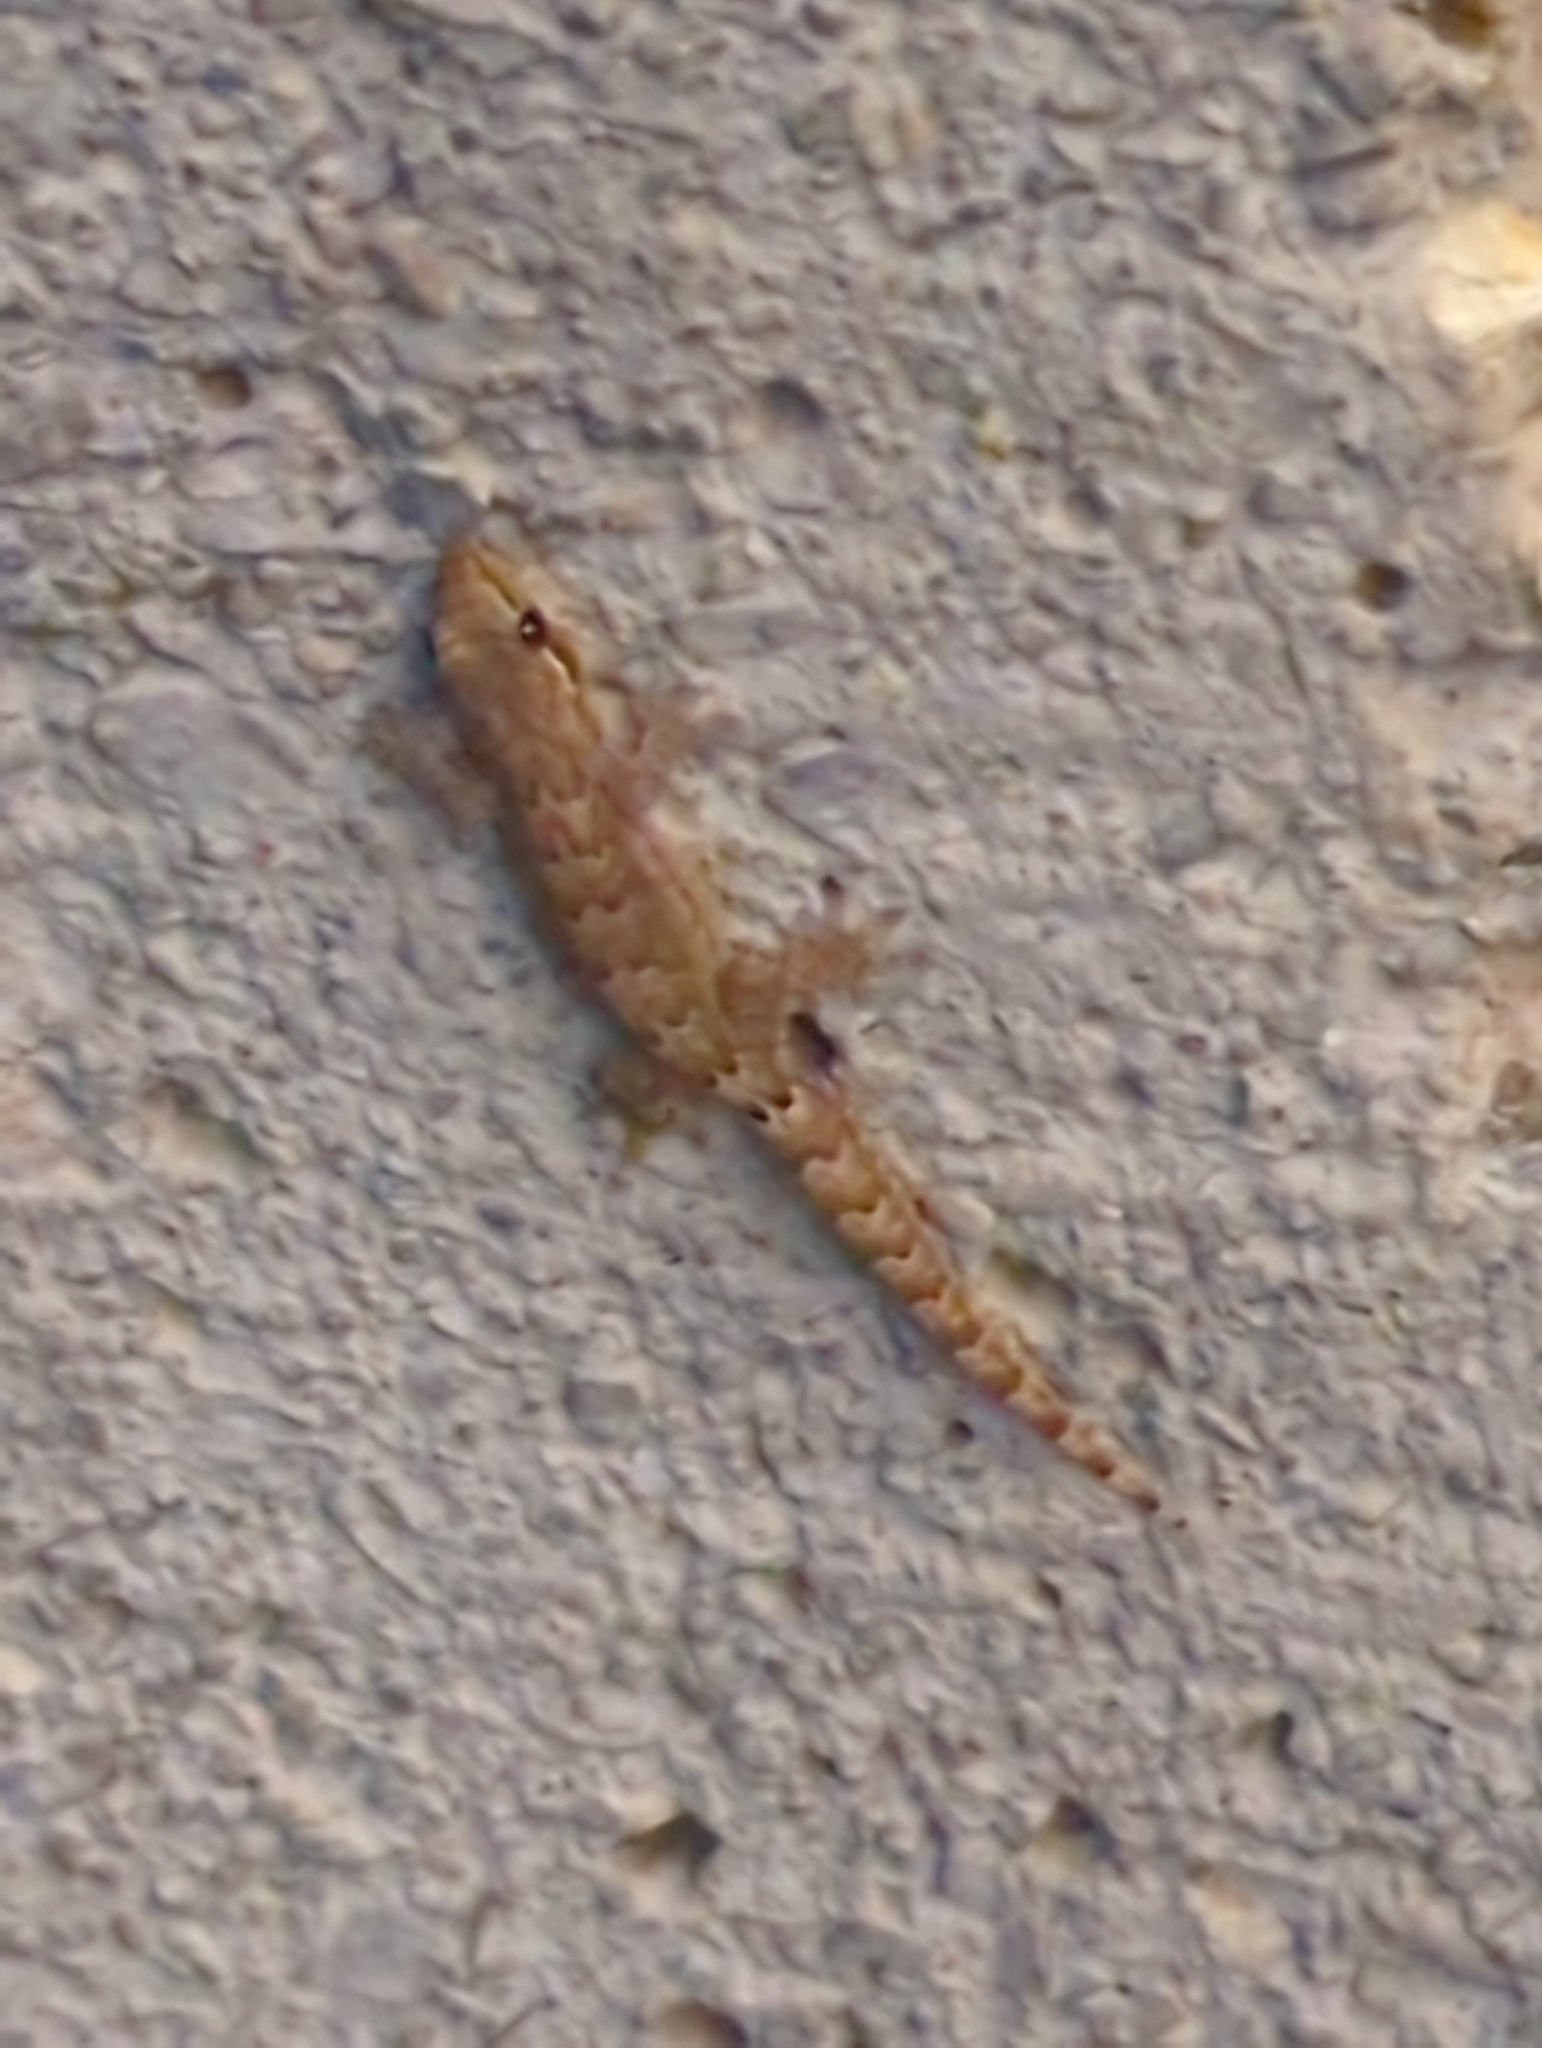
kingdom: Animalia
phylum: Chordata
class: Squamata
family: Gekkonidae
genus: Lepidodactylus
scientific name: Lepidodactylus lugubris
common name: Mourning gecko
